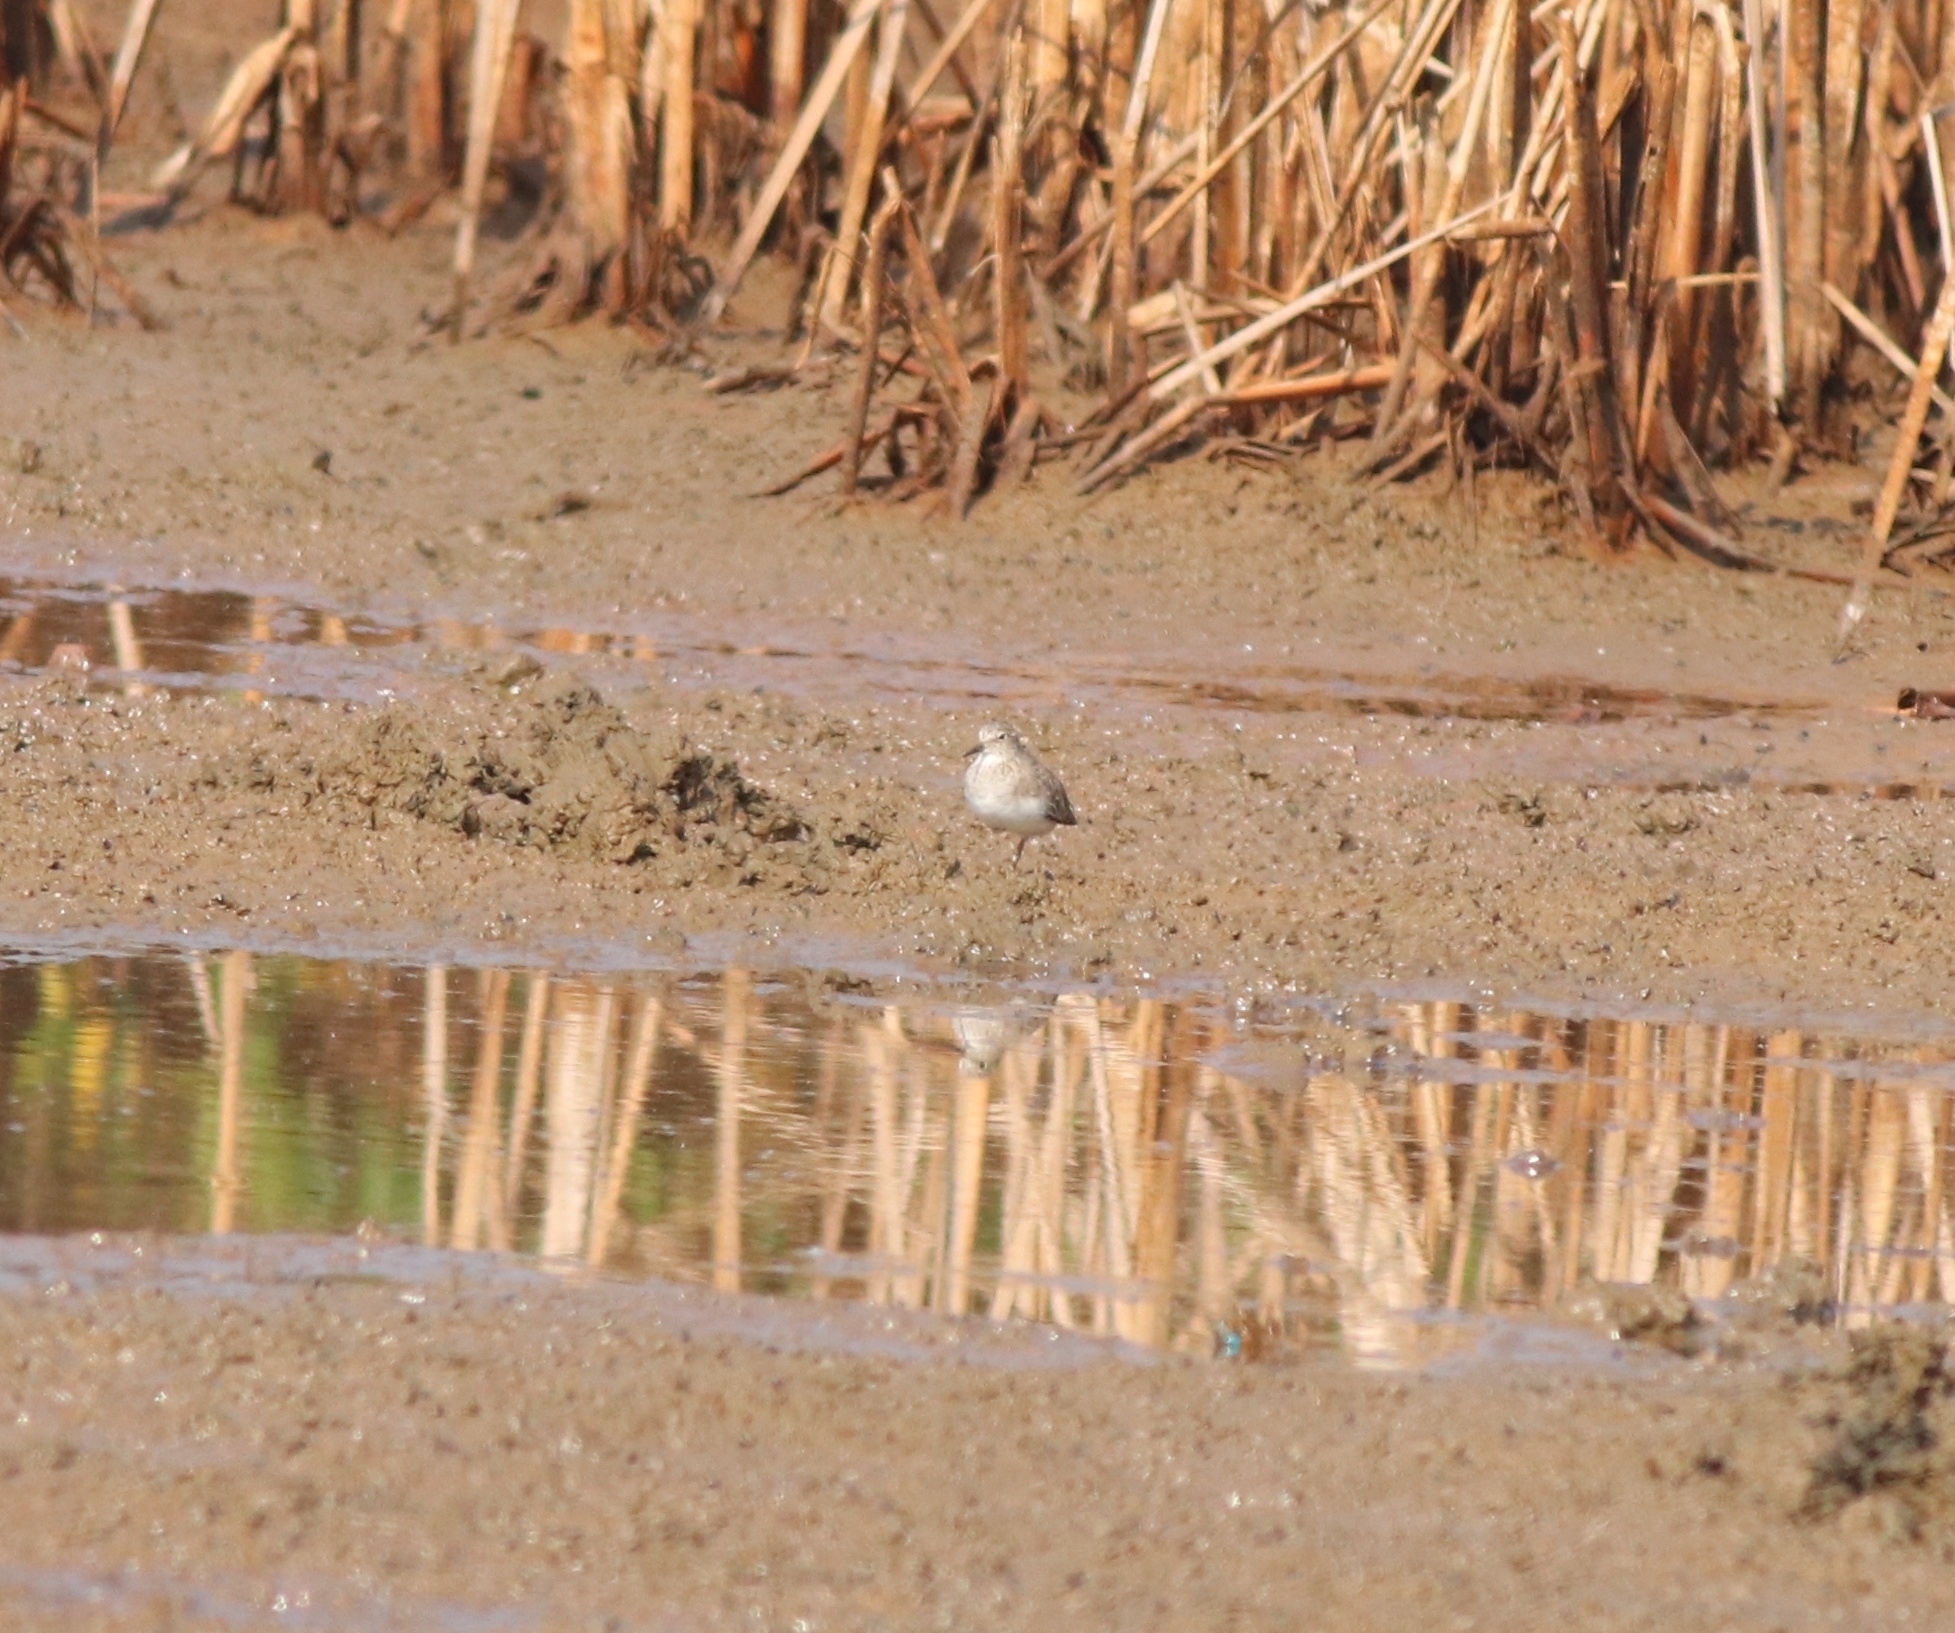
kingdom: Animalia
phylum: Chordata
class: Aves
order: Charadriiformes
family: Scolopacidae
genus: Calidris
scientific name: Calidris temminckii
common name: Temminck's stint
